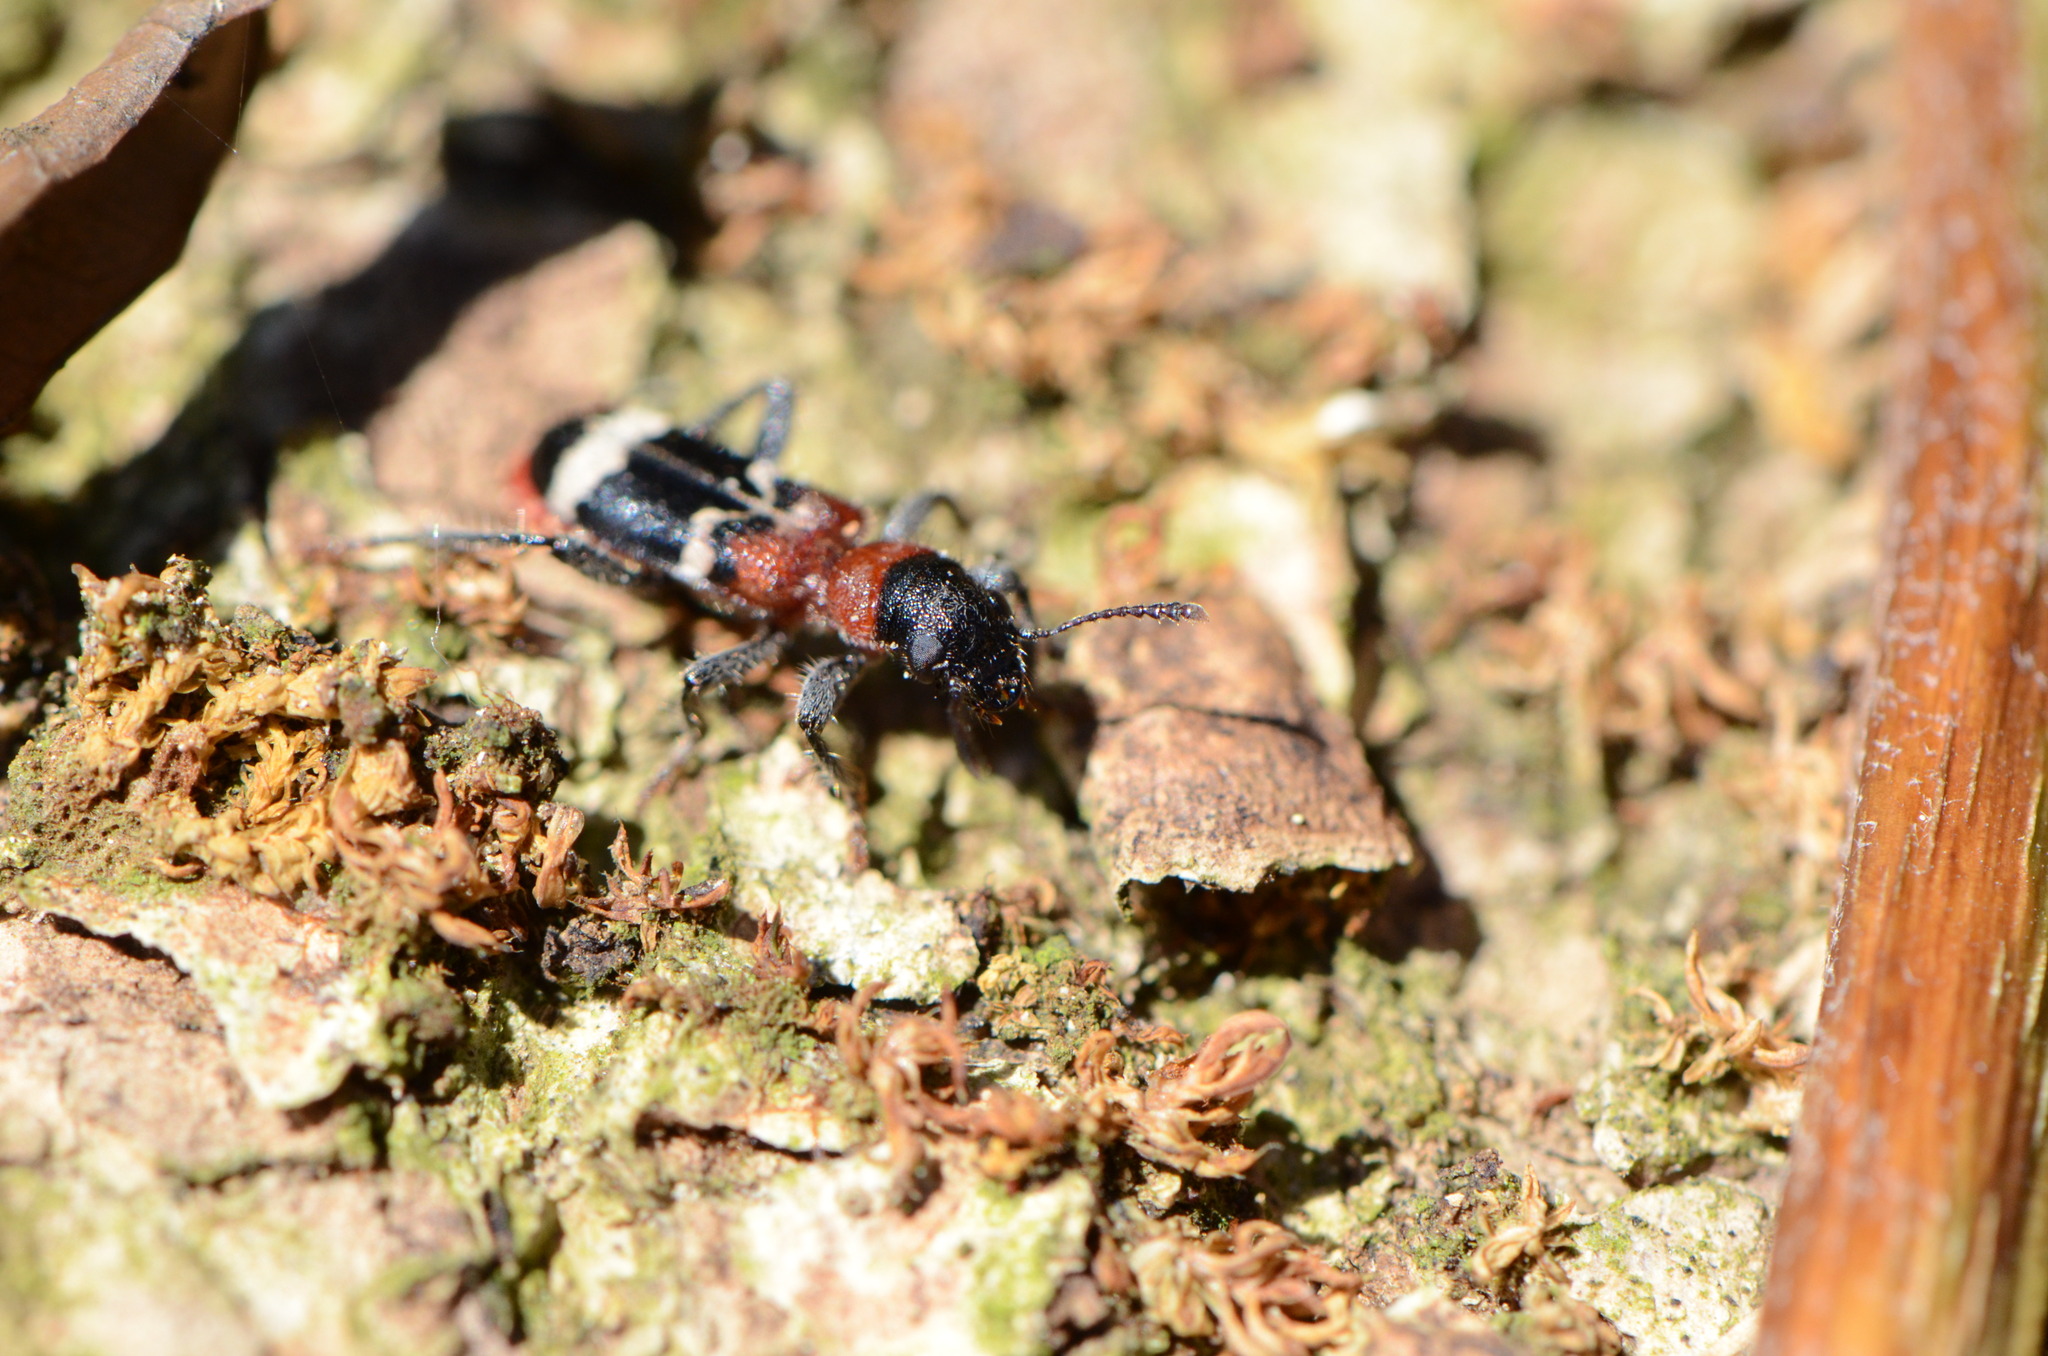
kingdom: Animalia
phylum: Arthropoda
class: Insecta
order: Coleoptera
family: Cleridae
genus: Thanasimus
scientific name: Thanasimus formicarius
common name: Ant beetle
